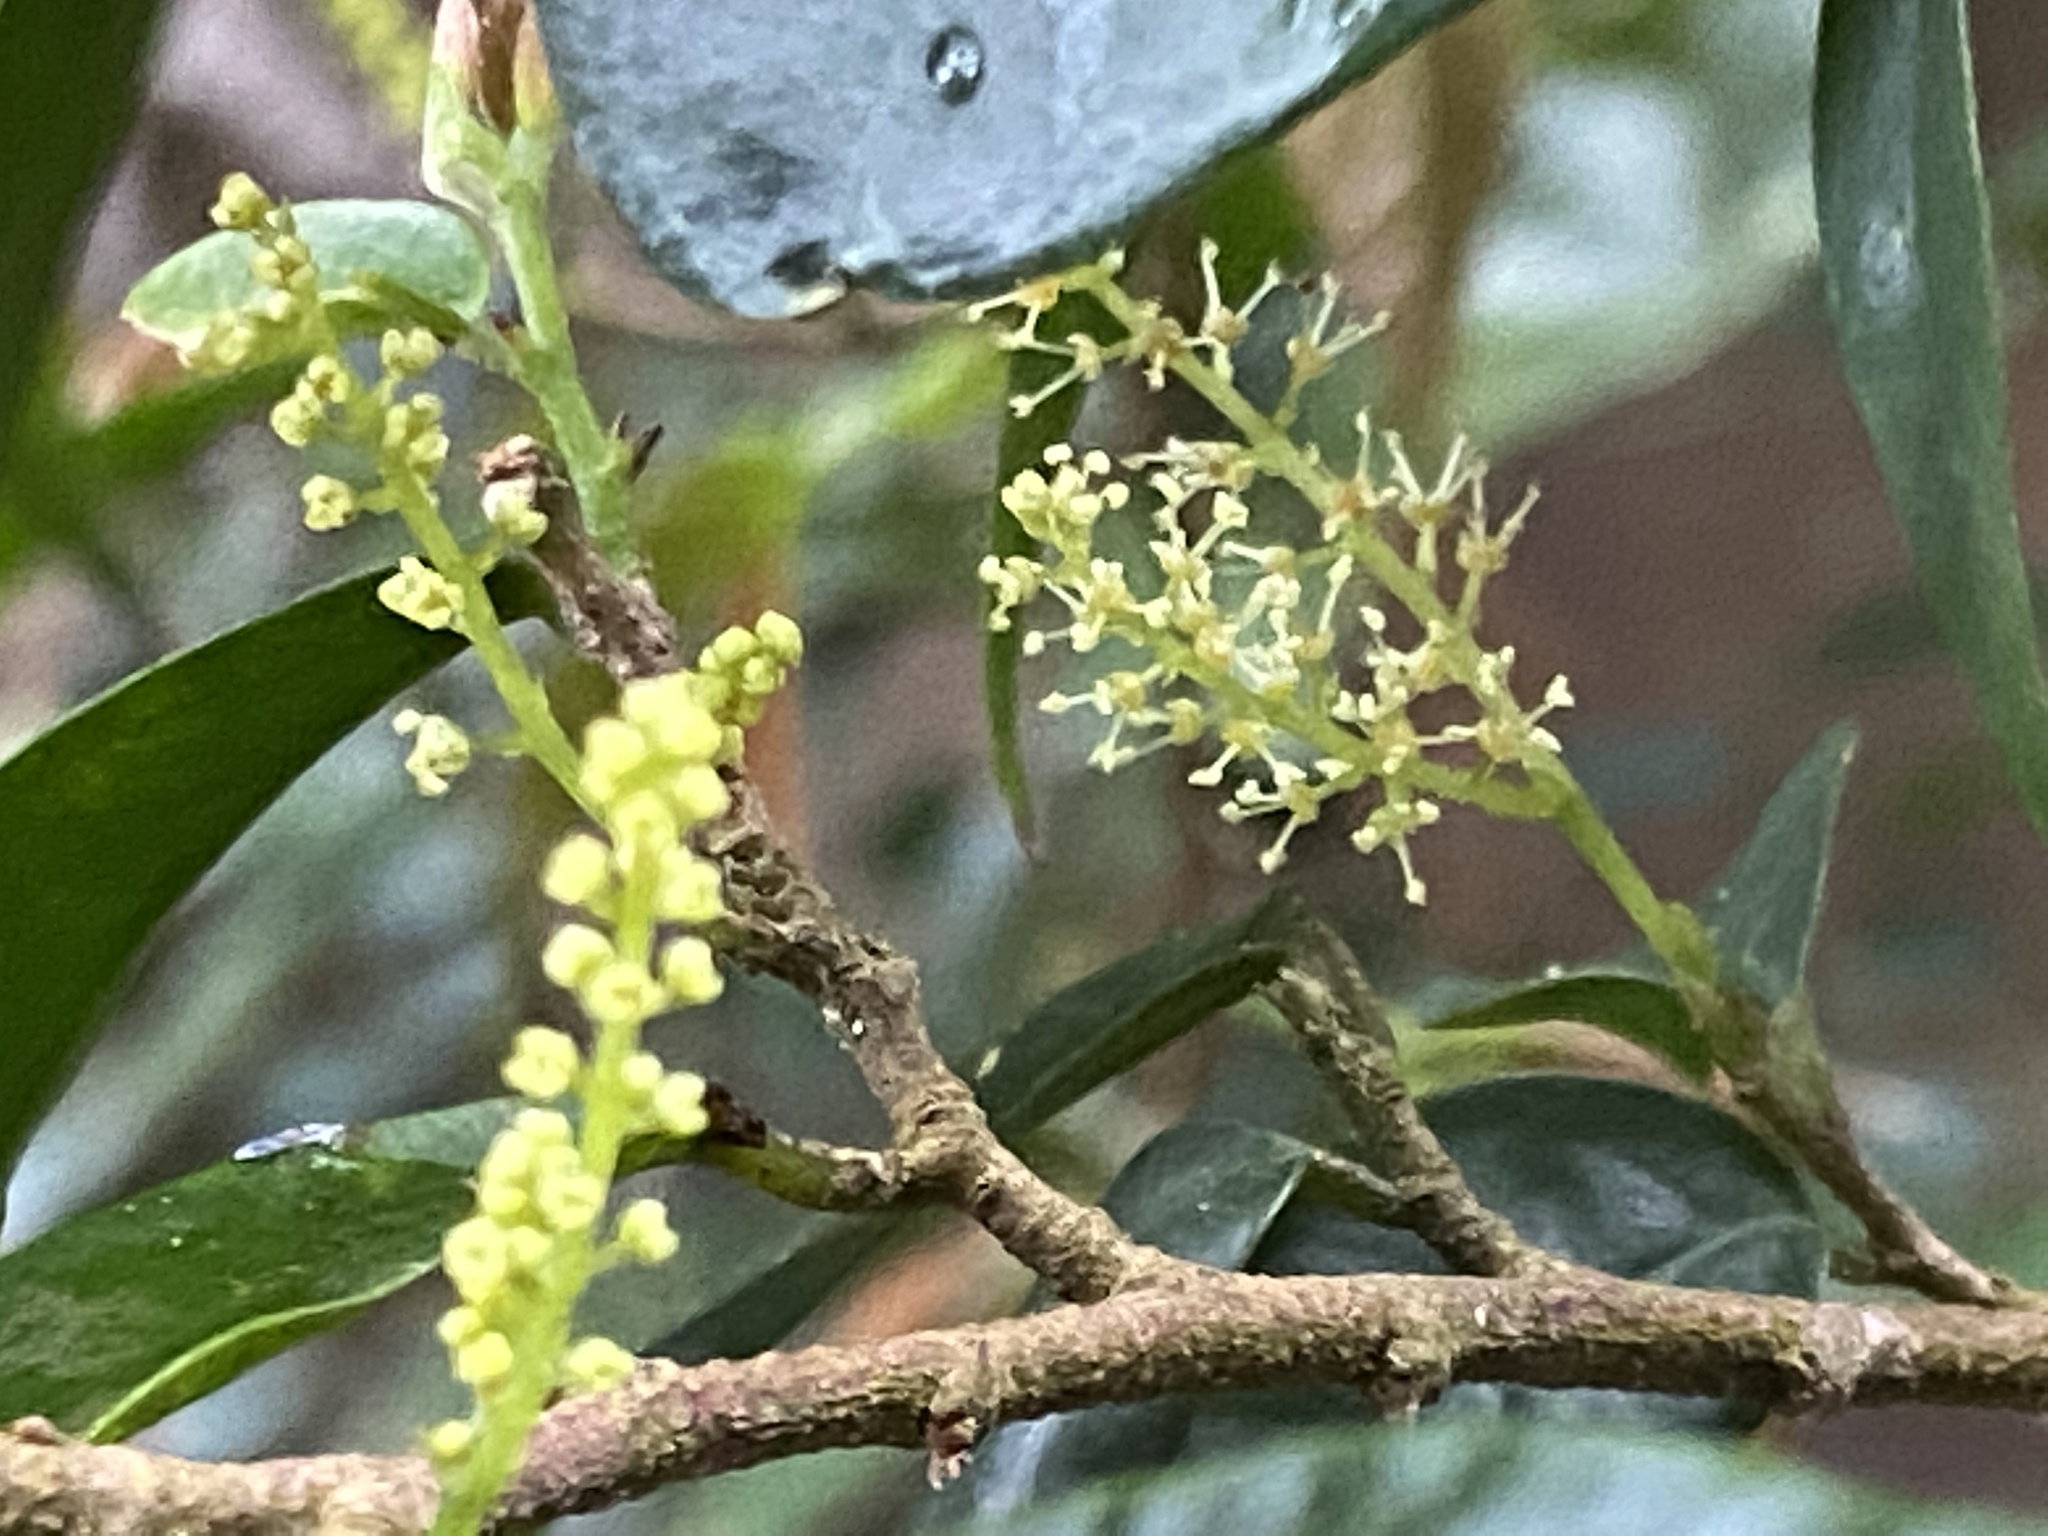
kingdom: Plantae
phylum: Tracheophyta
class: Magnoliopsida
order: Malpighiales
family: Phyllanthaceae
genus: Antidesma
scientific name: Antidesma japonicum
